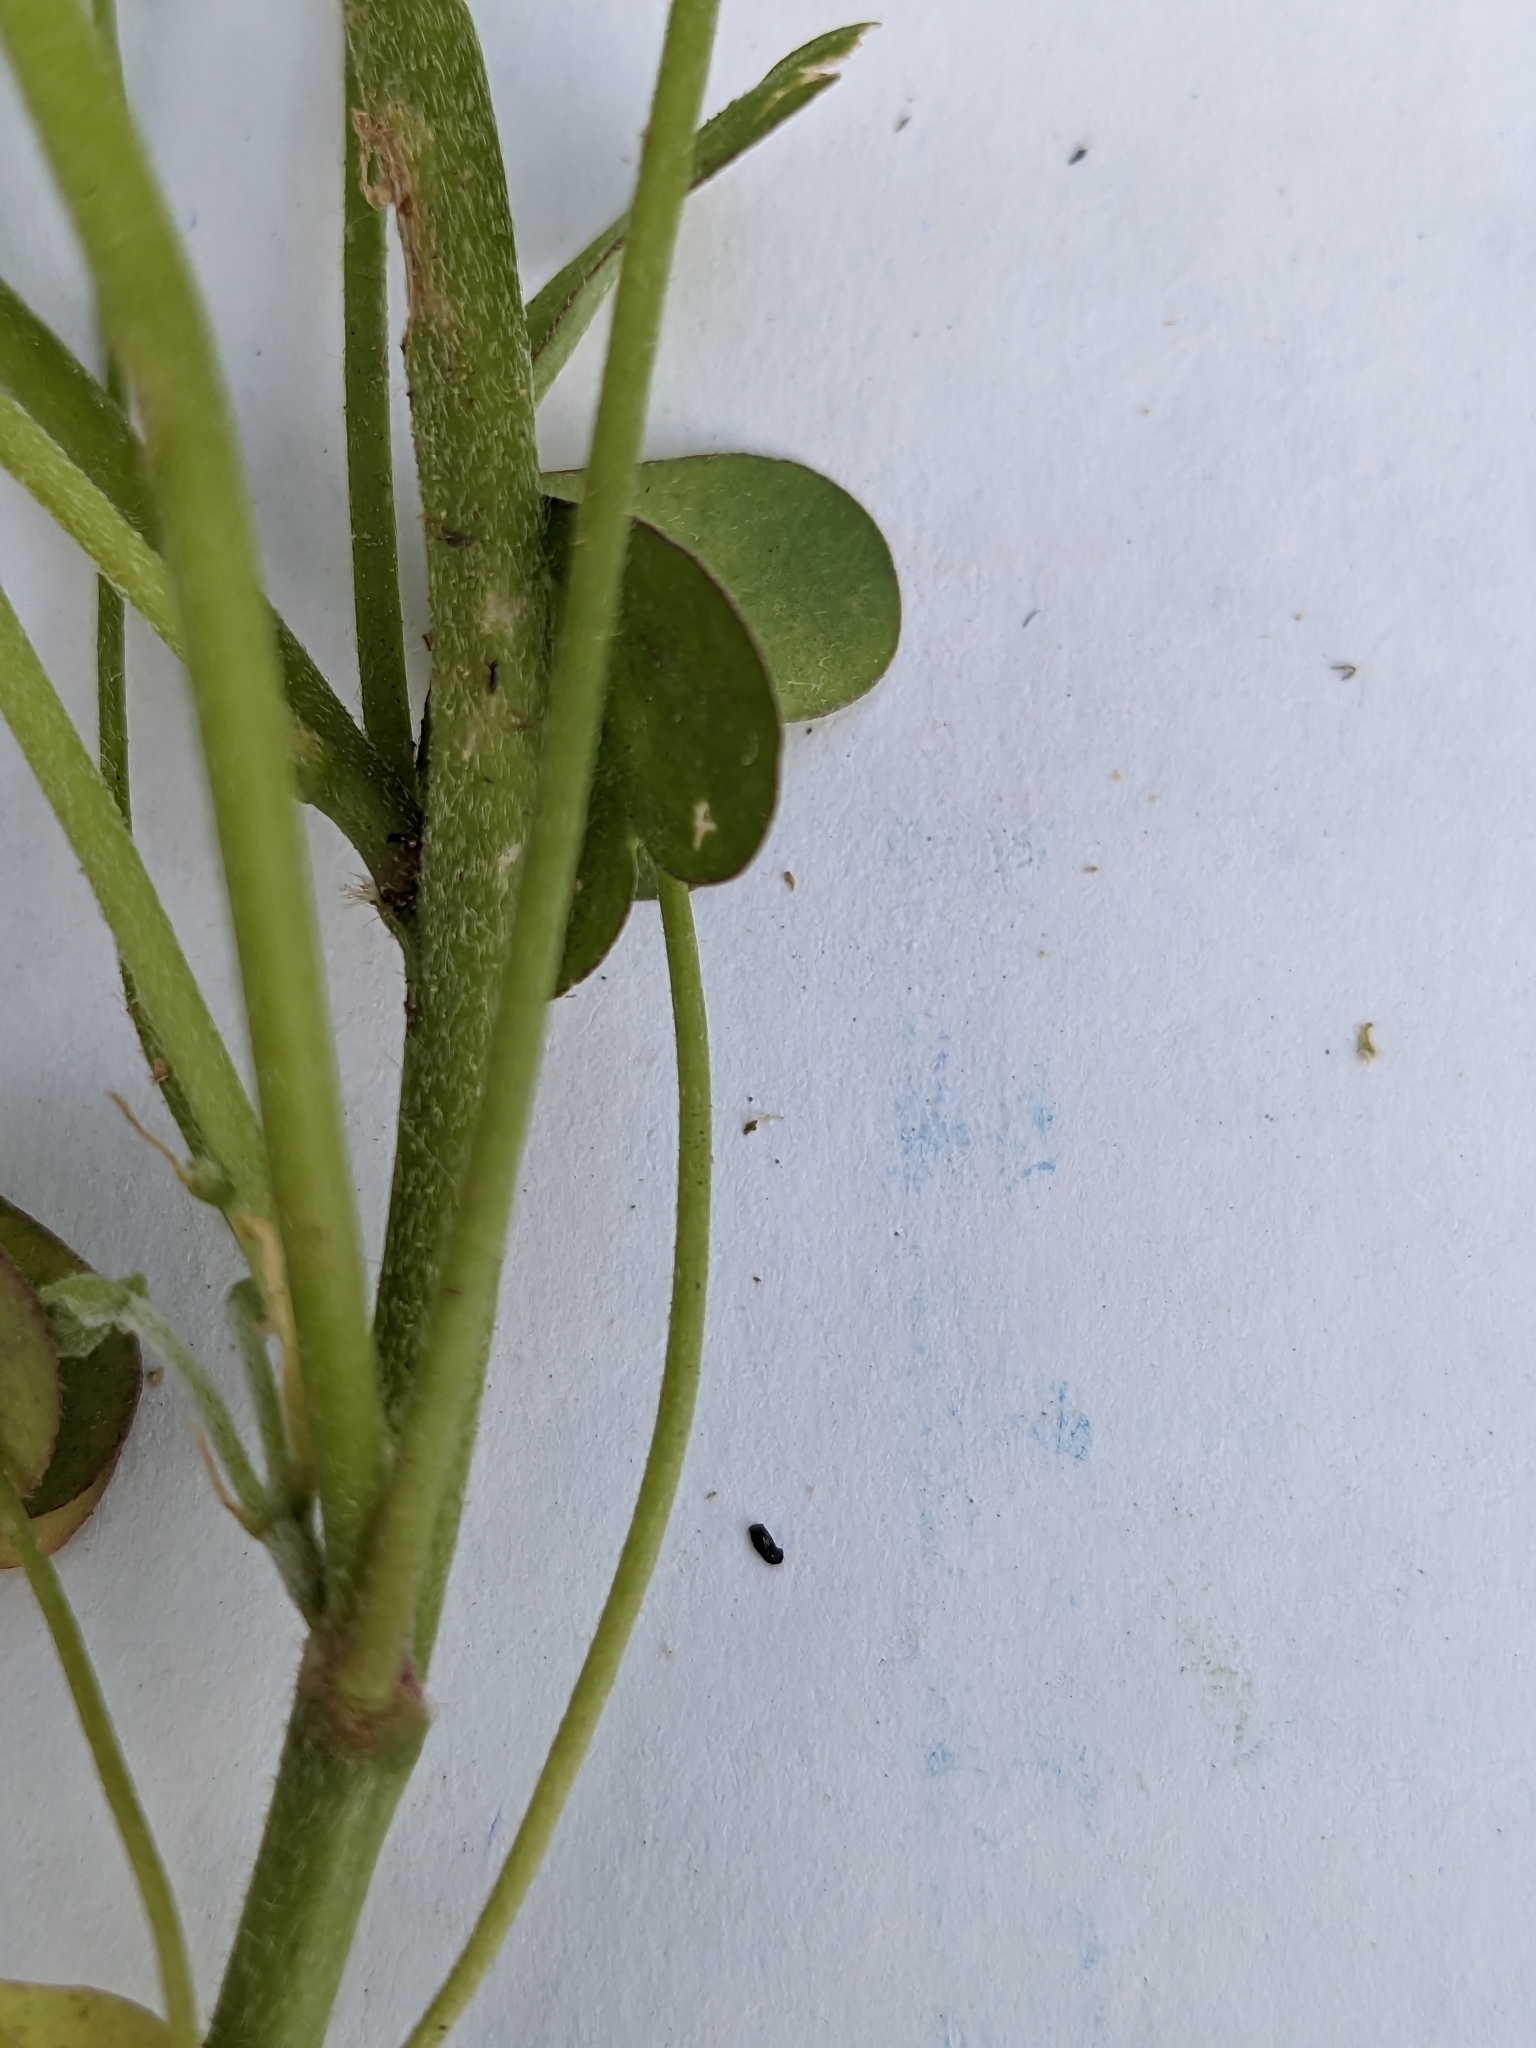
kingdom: Plantae
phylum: Tracheophyta
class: Magnoliopsida
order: Oxalidales
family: Oxalidaceae
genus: Oxalis
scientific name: Oxalis dillenii
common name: Sussex yellow-sorrel
